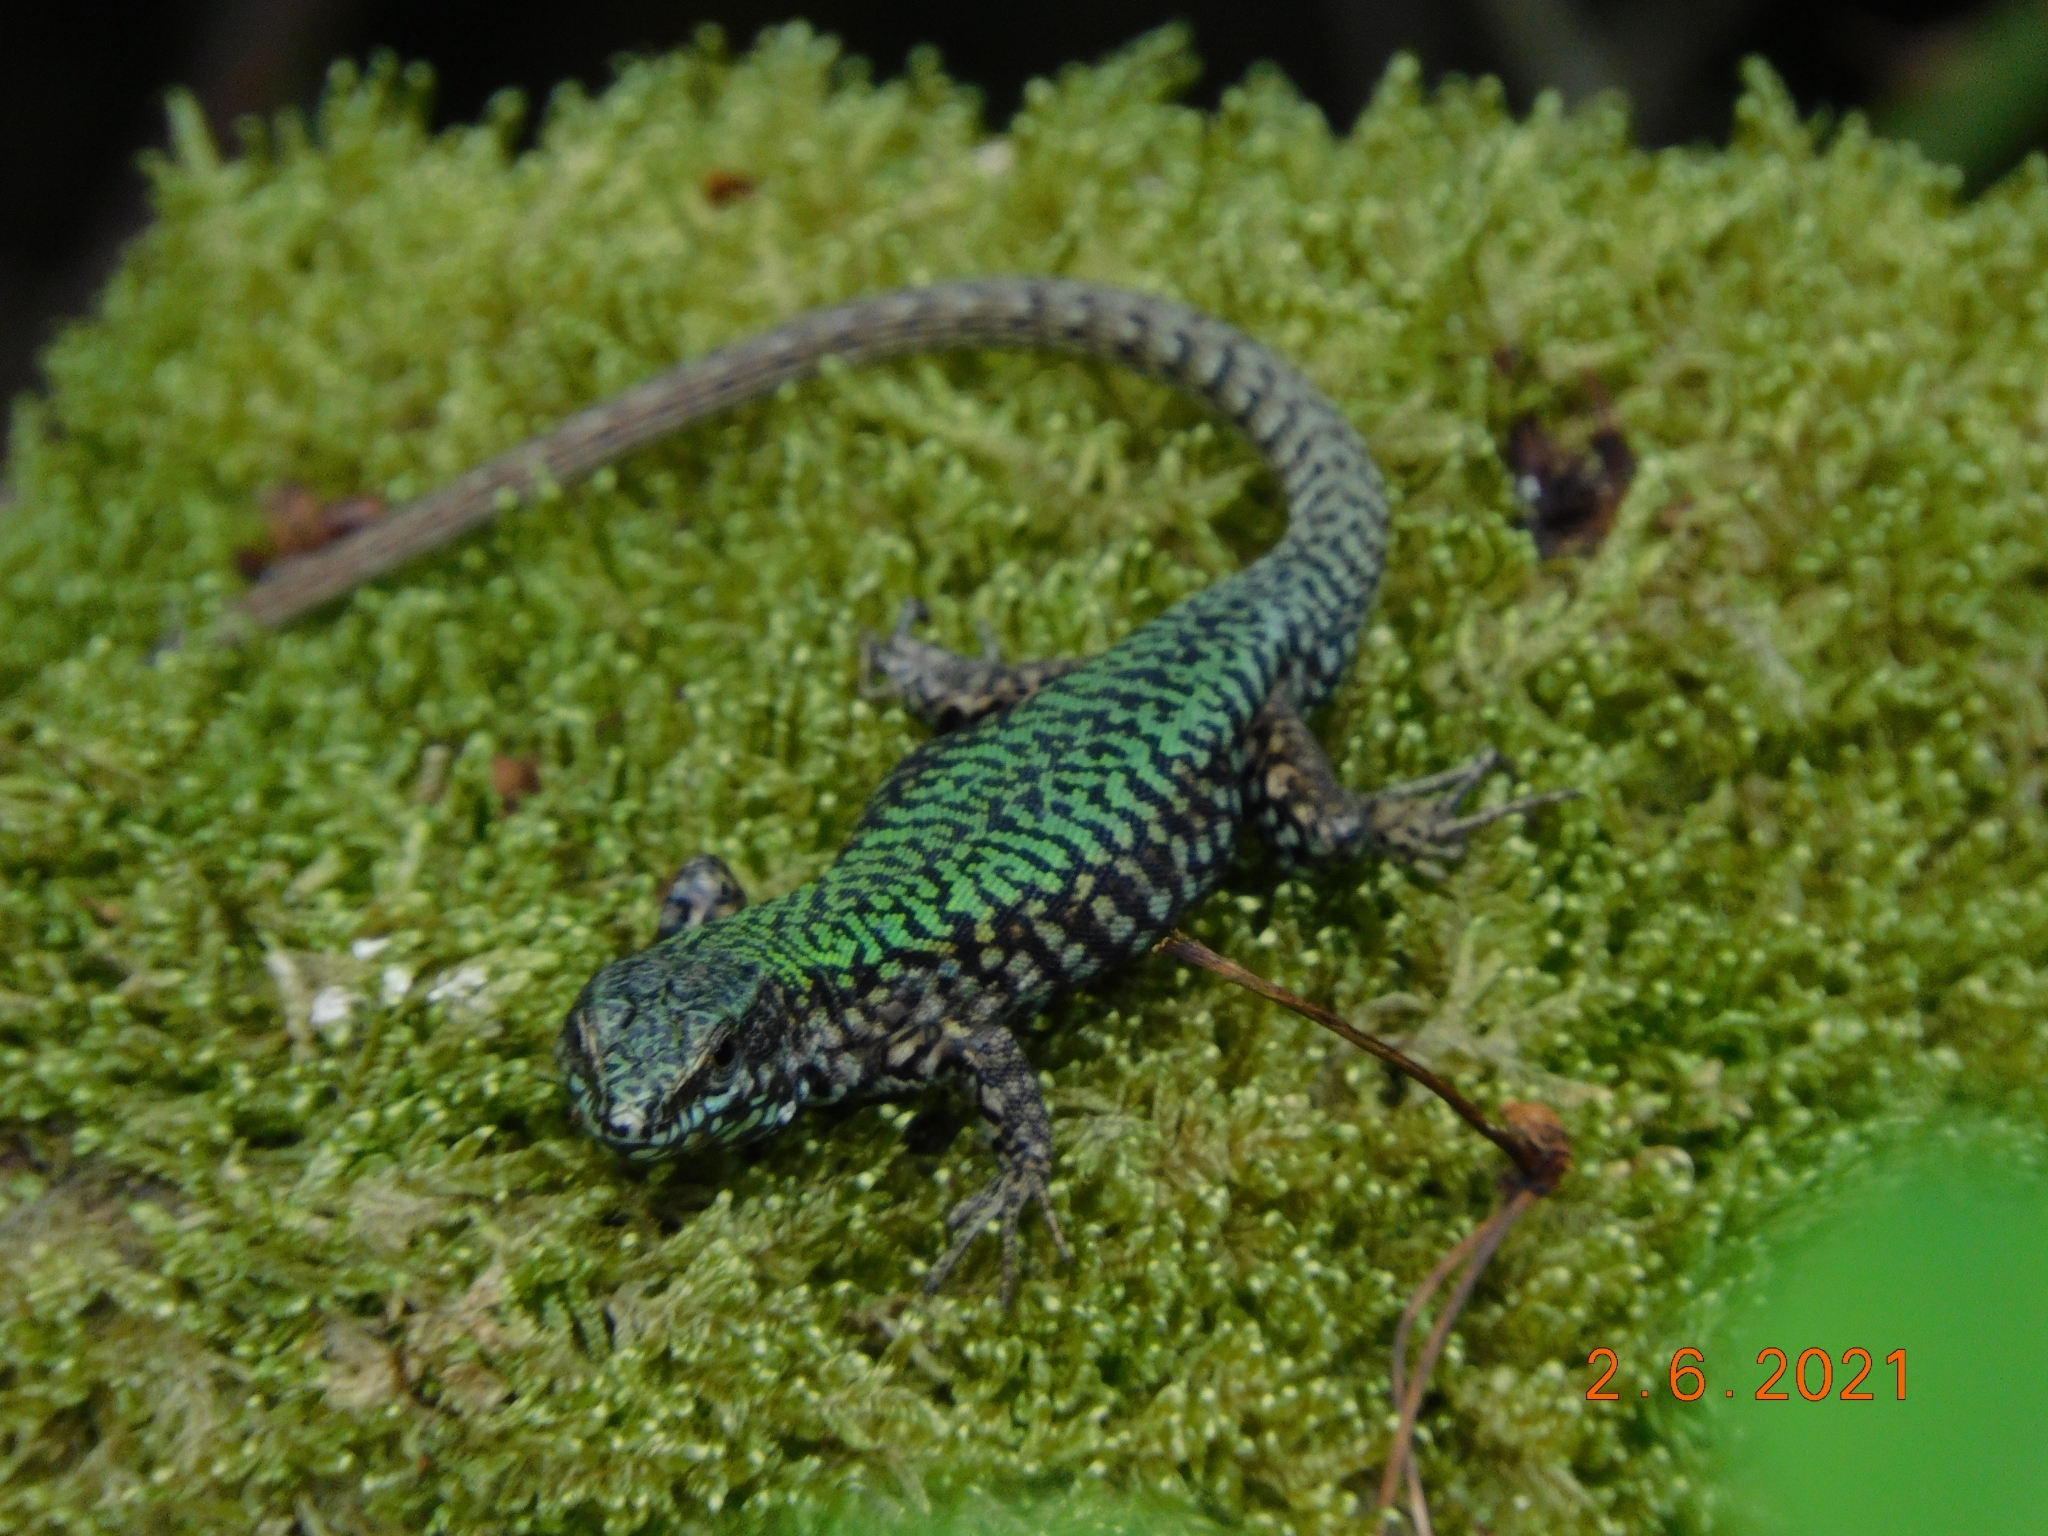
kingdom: Animalia
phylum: Chordata
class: Squamata
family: Lacertidae
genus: Podarcis
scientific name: Podarcis muralis
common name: Common wall lizard
